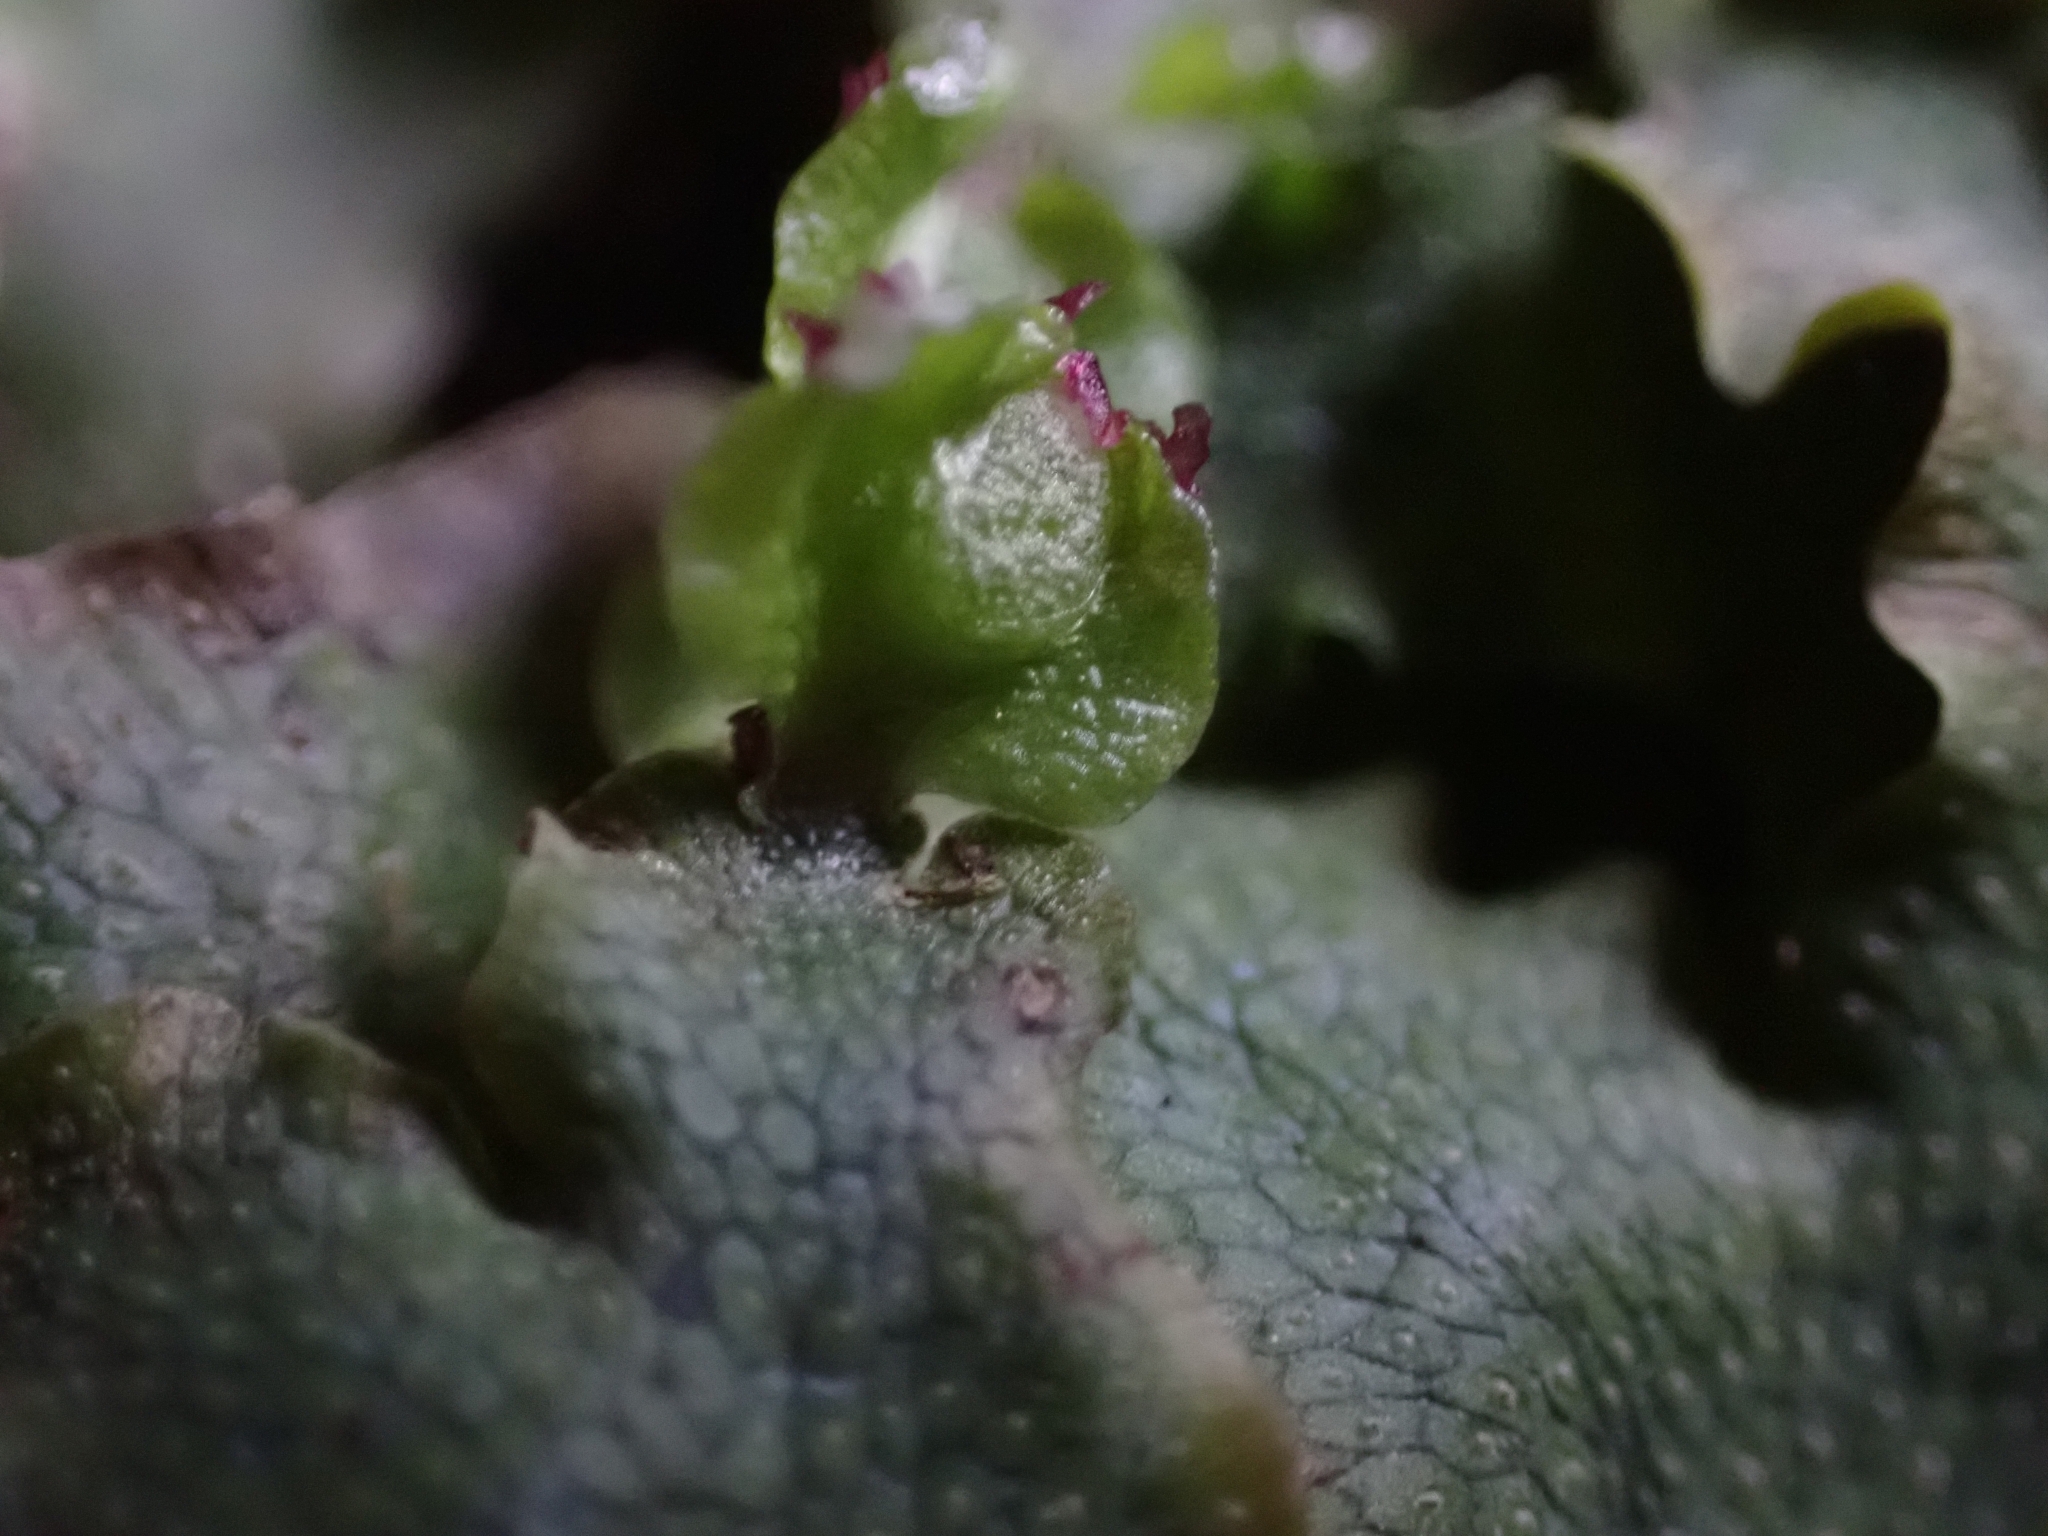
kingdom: Plantae
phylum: Marchantiophyta
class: Marchantiopsida
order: Marchantiales
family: Conocephalaceae
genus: Conocephalum
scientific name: Conocephalum salebrosum
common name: Cat-tongue liverwort
